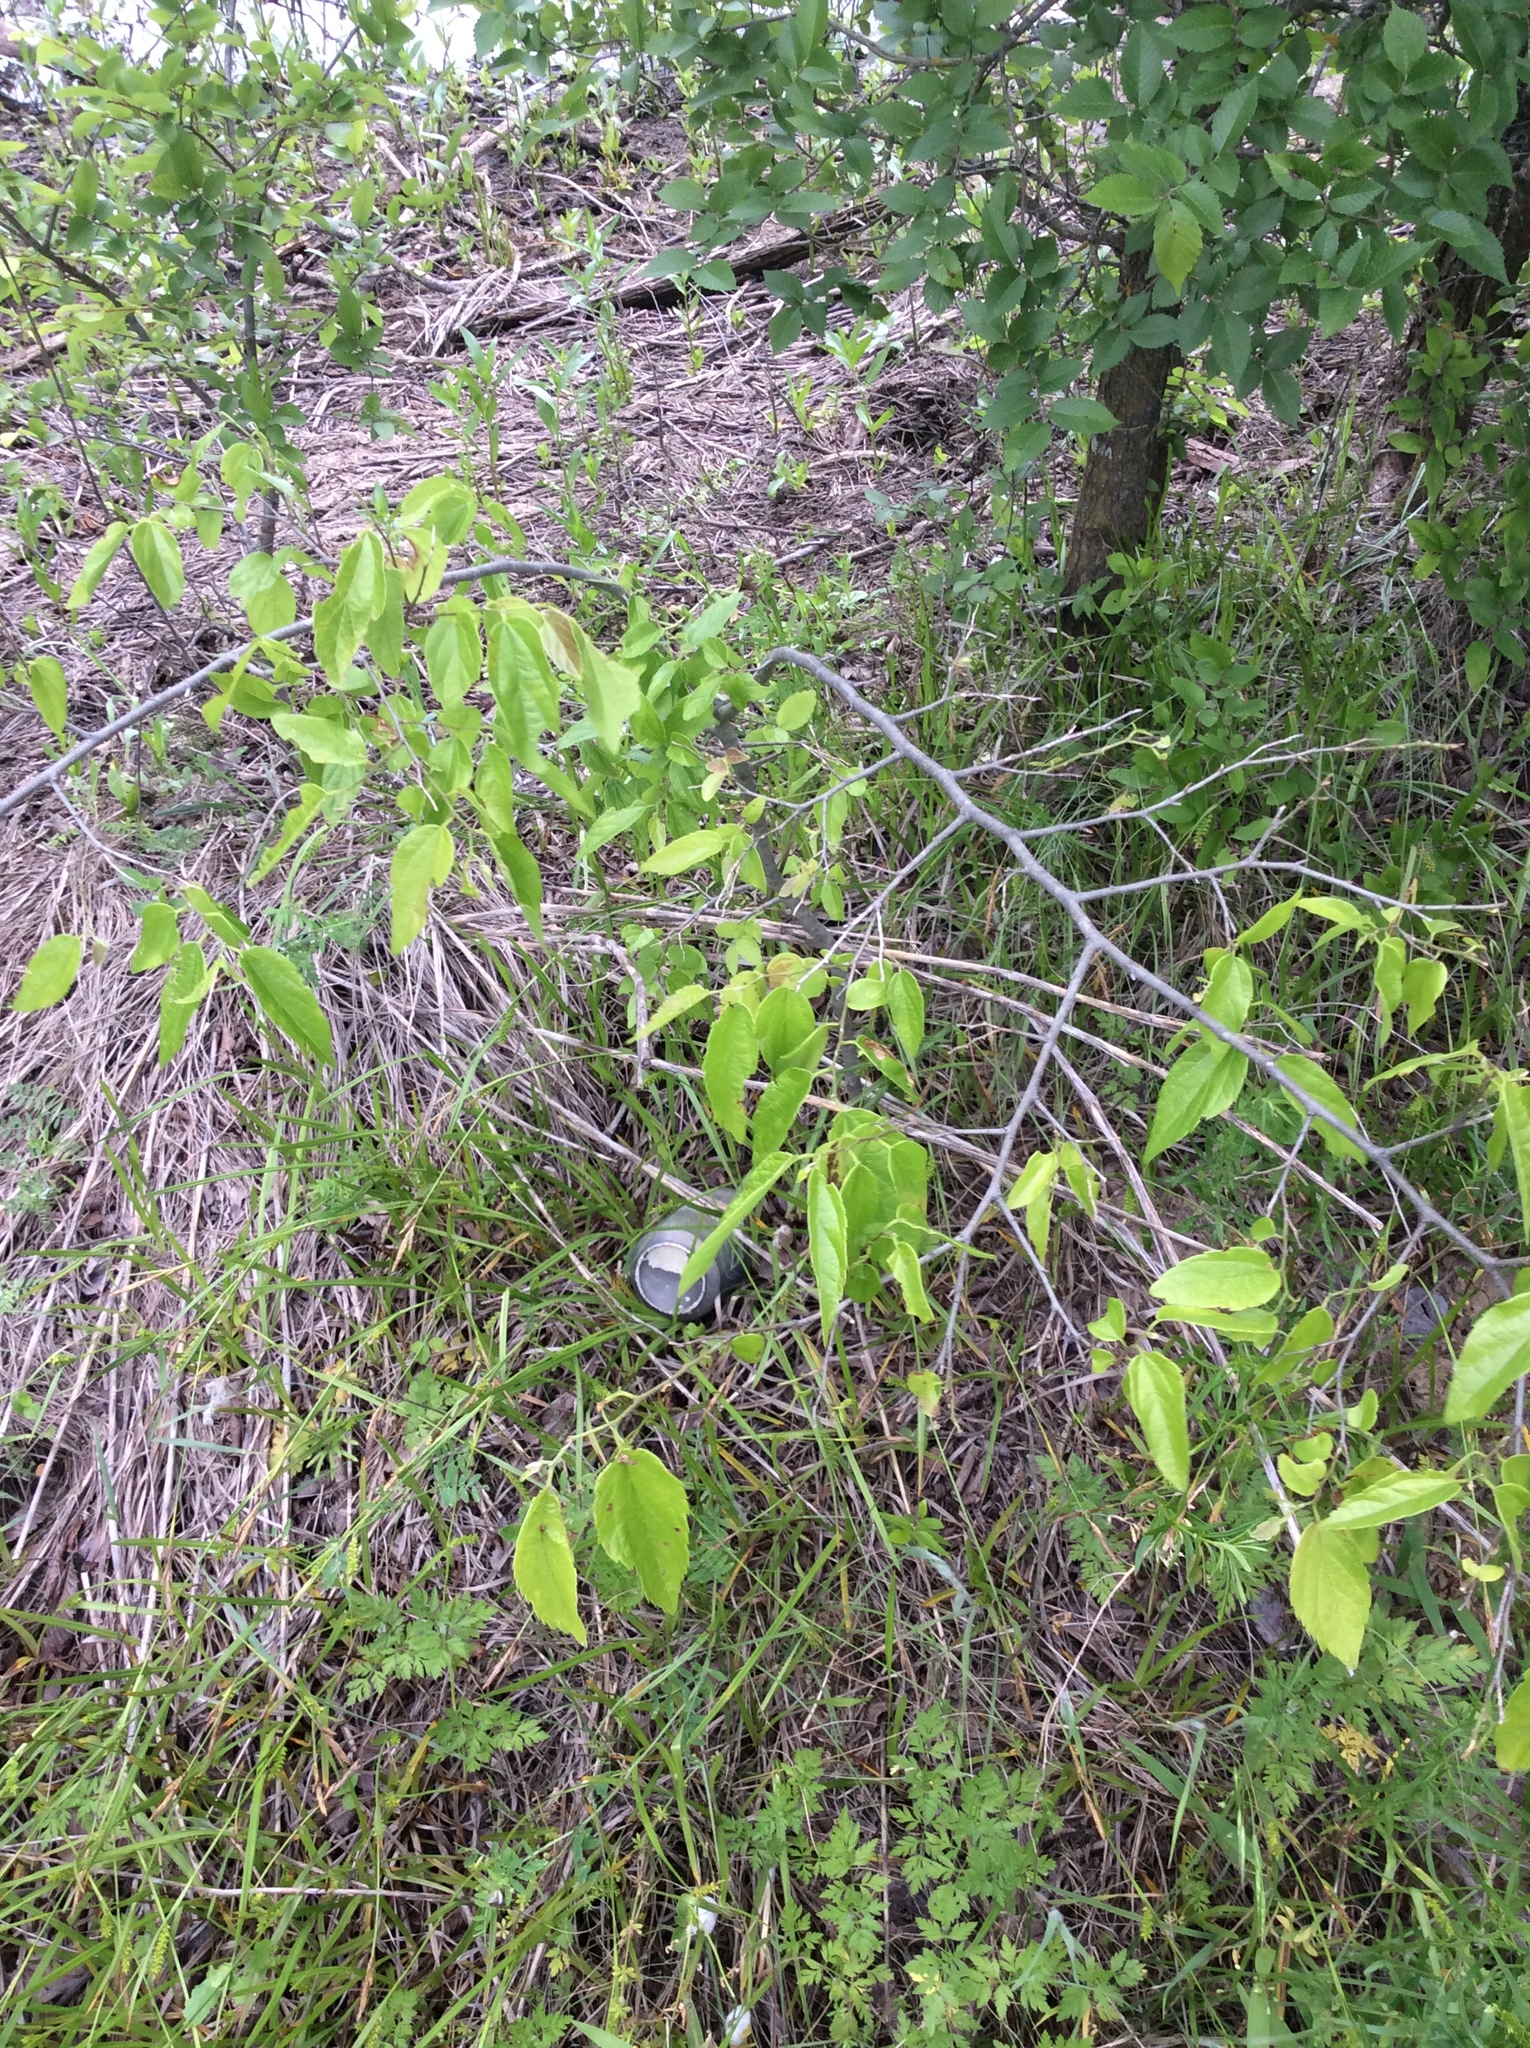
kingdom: Plantae
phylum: Tracheophyta
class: Magnoliopsida
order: Rosales
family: Cannabaceae
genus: Celtis
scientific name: Celtis laevigata
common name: Sugarberry
